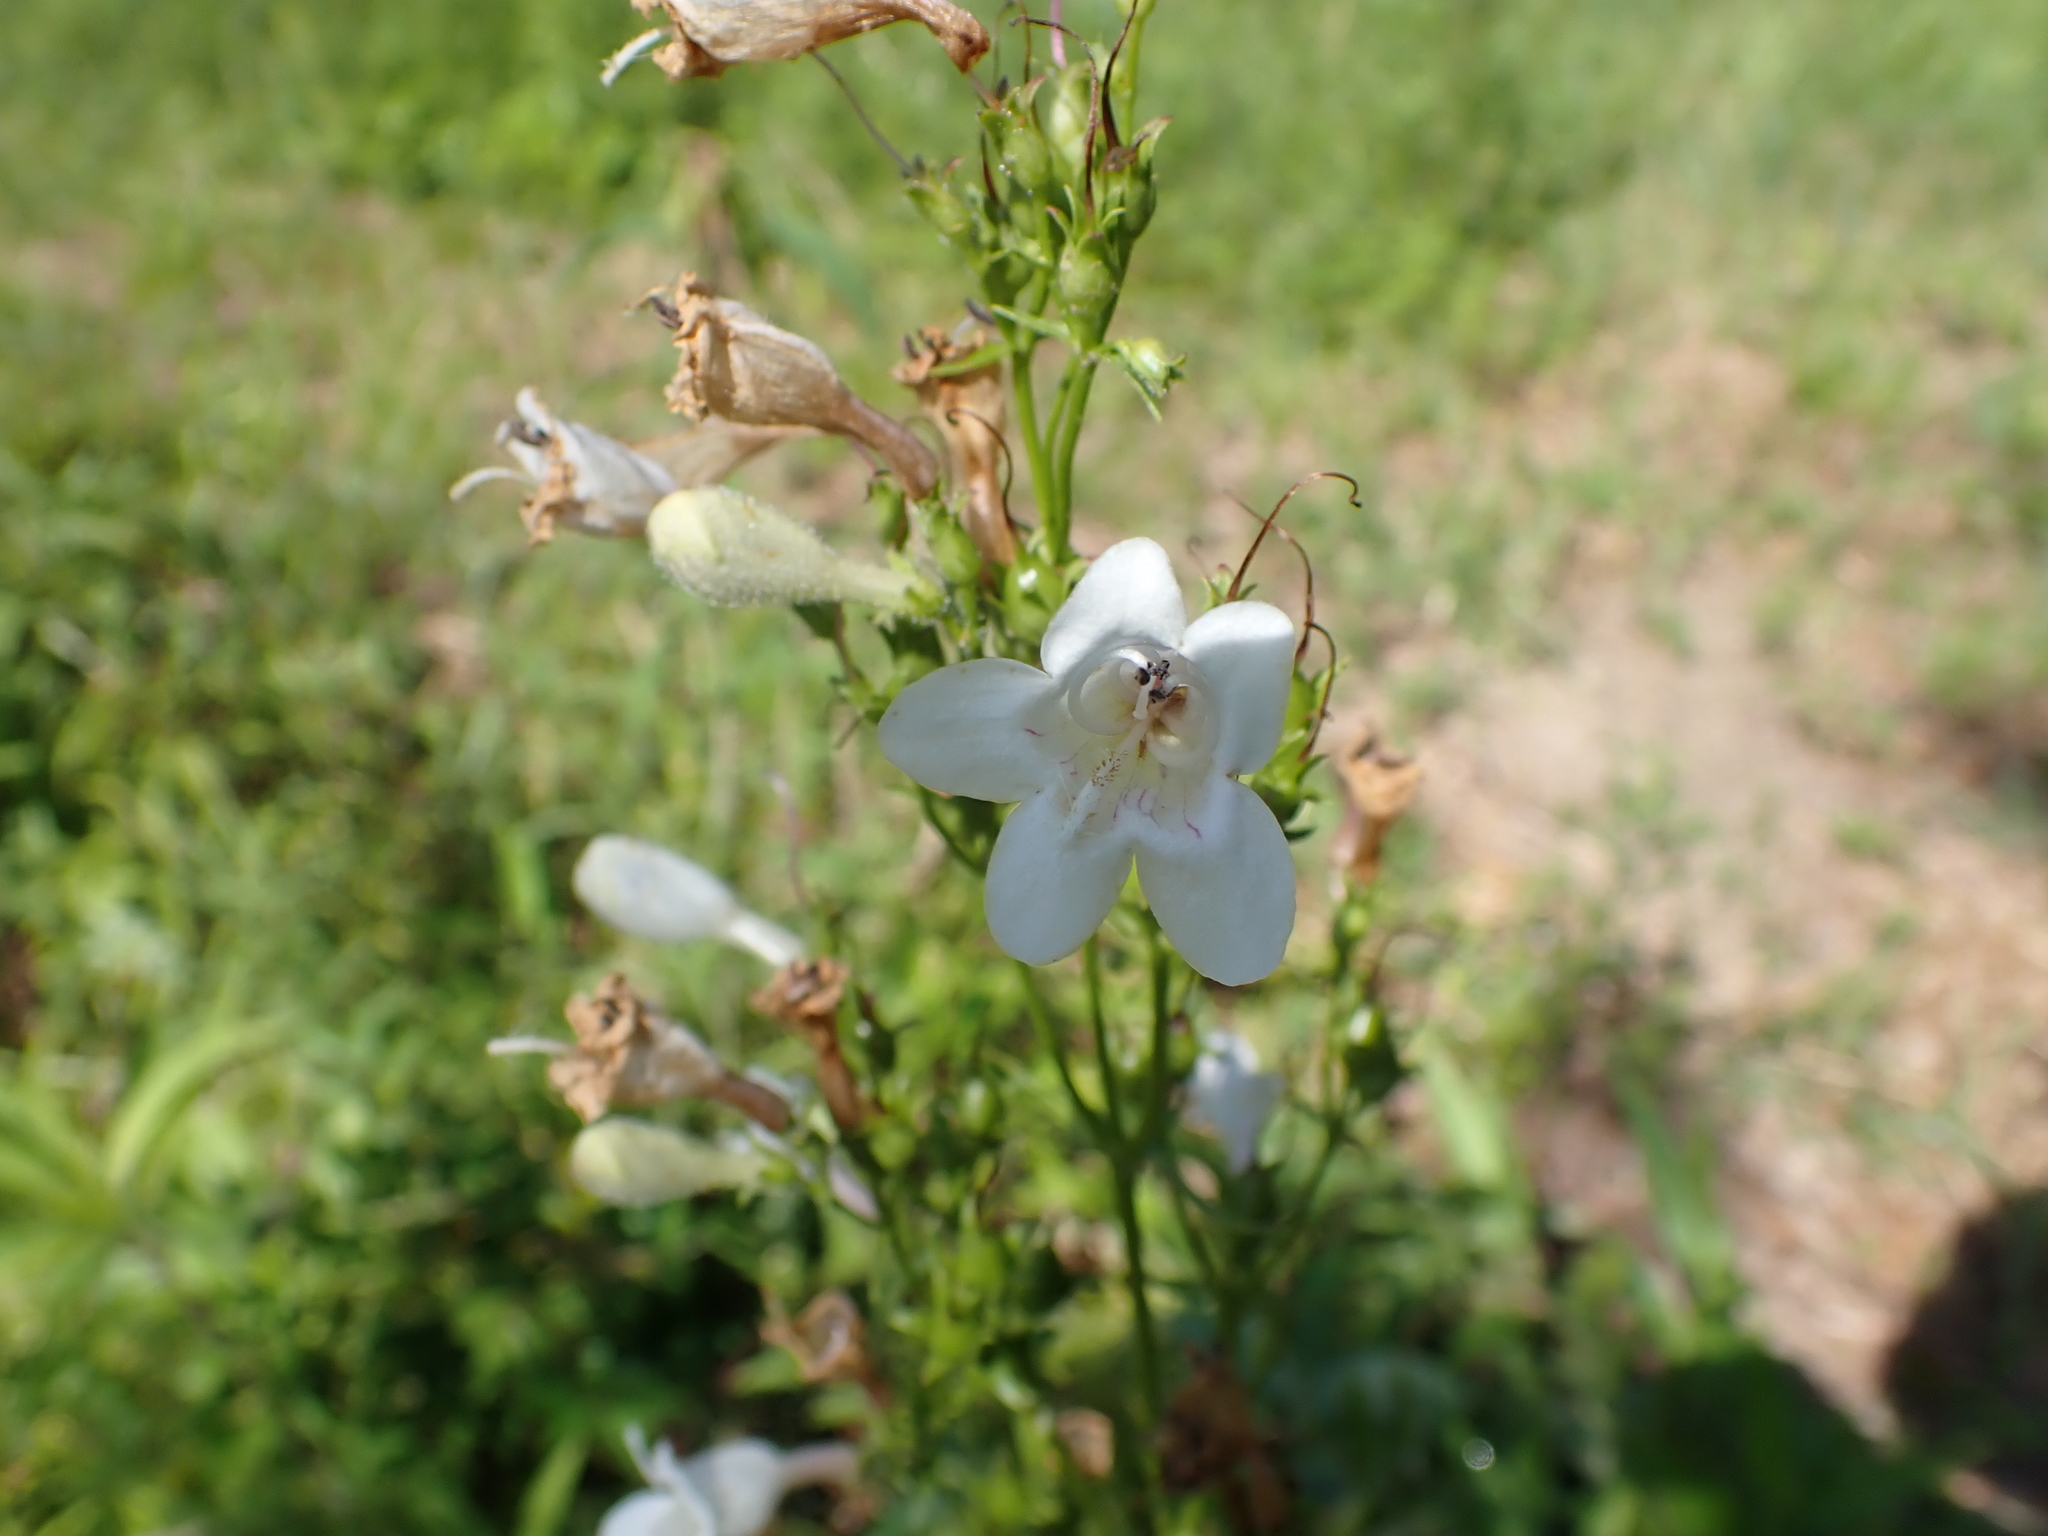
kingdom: Plantae
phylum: Tracheophyta
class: Magnoliopsida
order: Lamiales
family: Plantaginaceae
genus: Penstemon
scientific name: Penstemon digitalis
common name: Foxglove beardtongue
